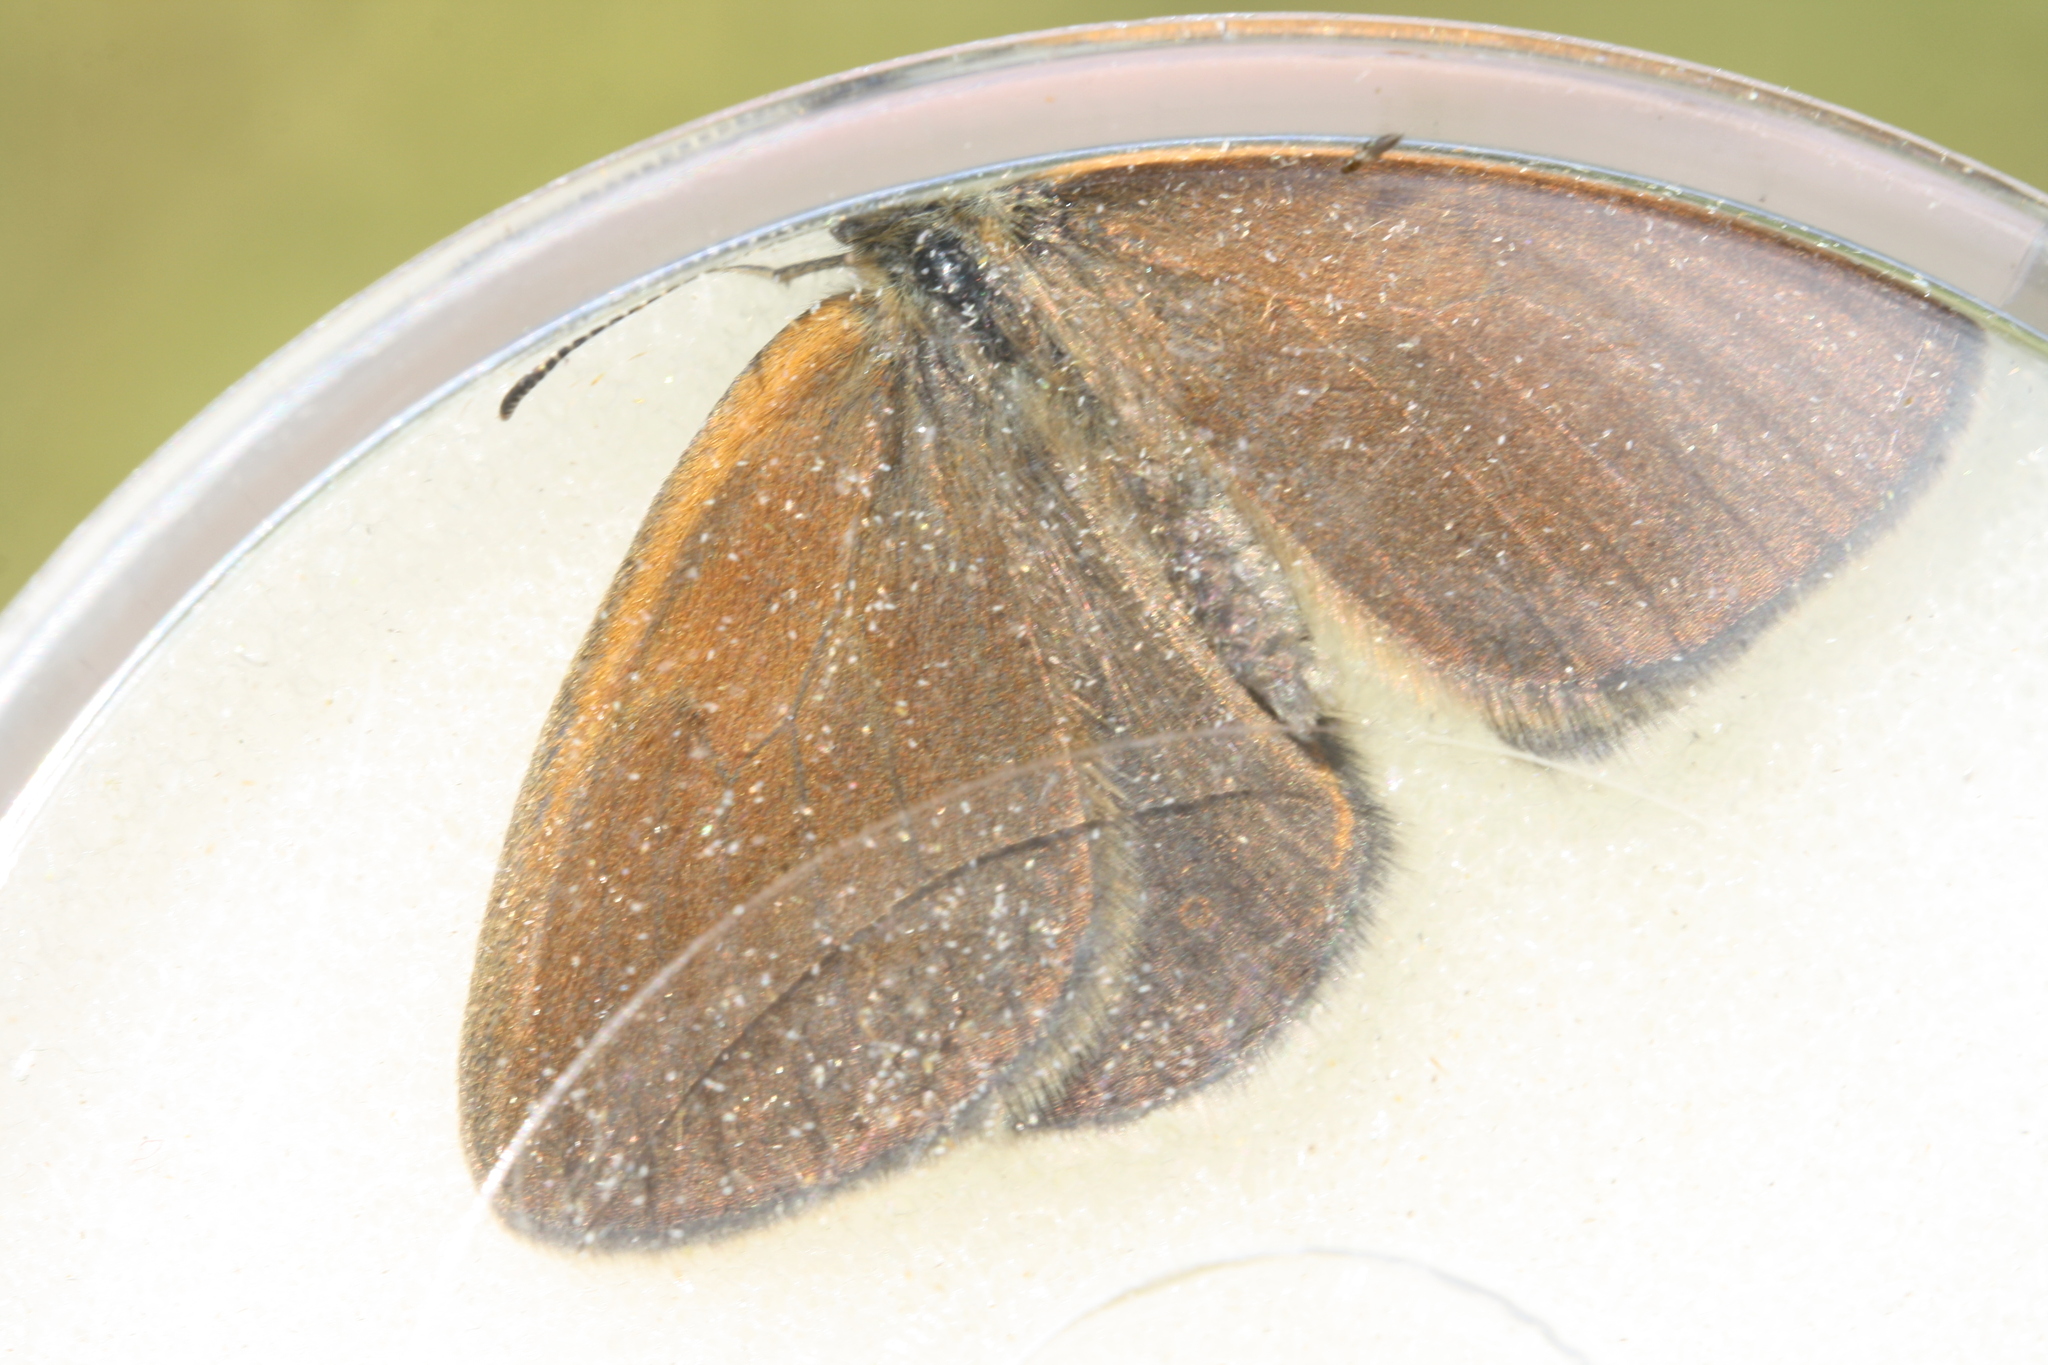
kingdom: Animalia
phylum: Arthropoda
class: Insecta
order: Lepidoptera
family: Nymphalidae
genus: Coenonympha
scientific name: Coenonympha iphis
